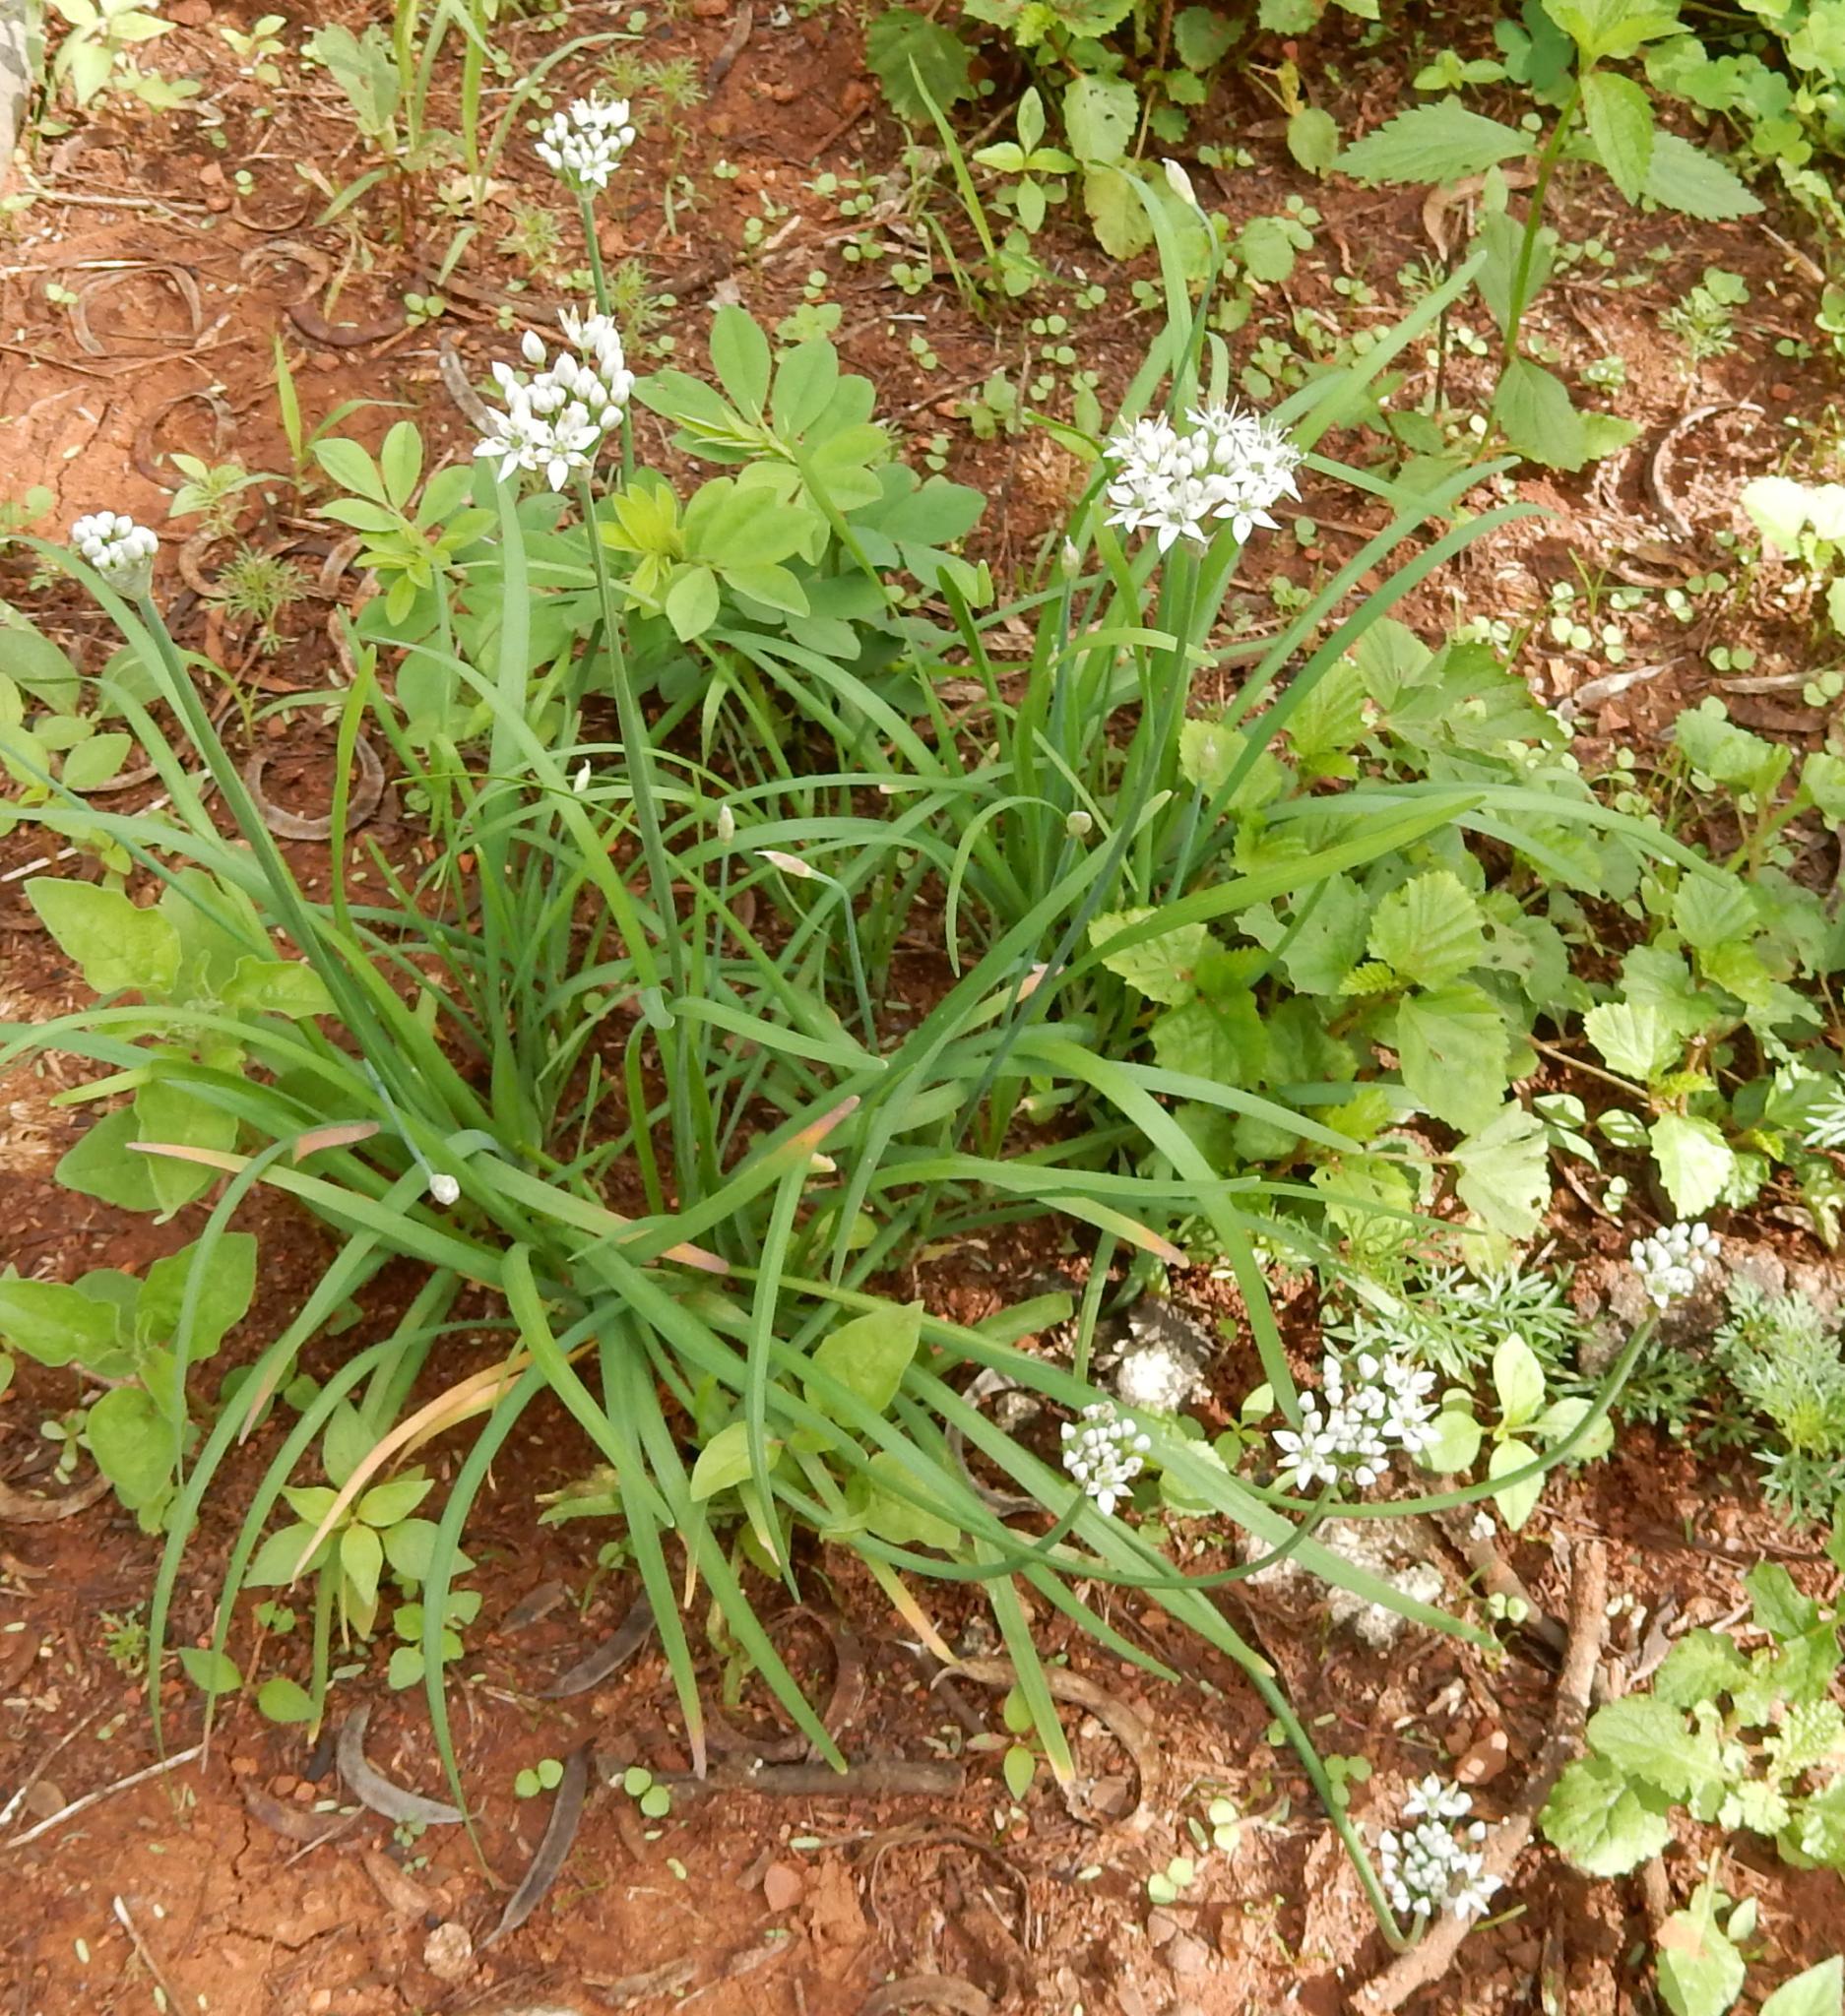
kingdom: Plantae
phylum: Tracheophyta
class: Liliopsida
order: Asparagales
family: Amaryllidaceae
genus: Allium
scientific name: Allium tuberosum
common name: Chinese chives
